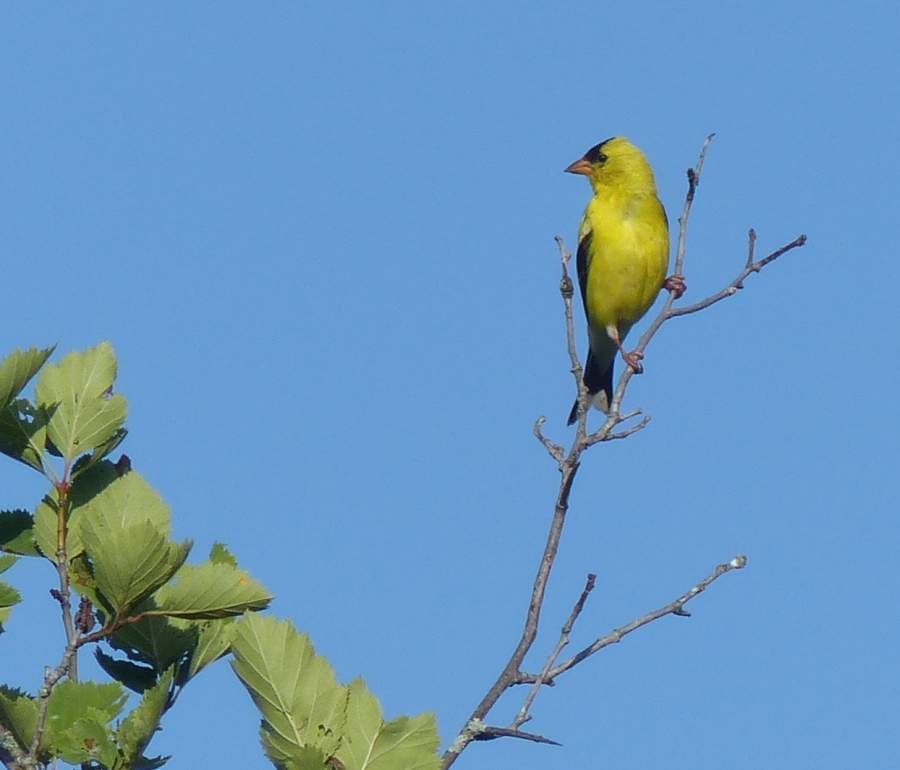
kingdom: Animalia
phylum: Chordata
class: Aves
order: Passeriformes
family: Fringillidae
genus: Spinus
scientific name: Spinus tristis
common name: American goldfinch
